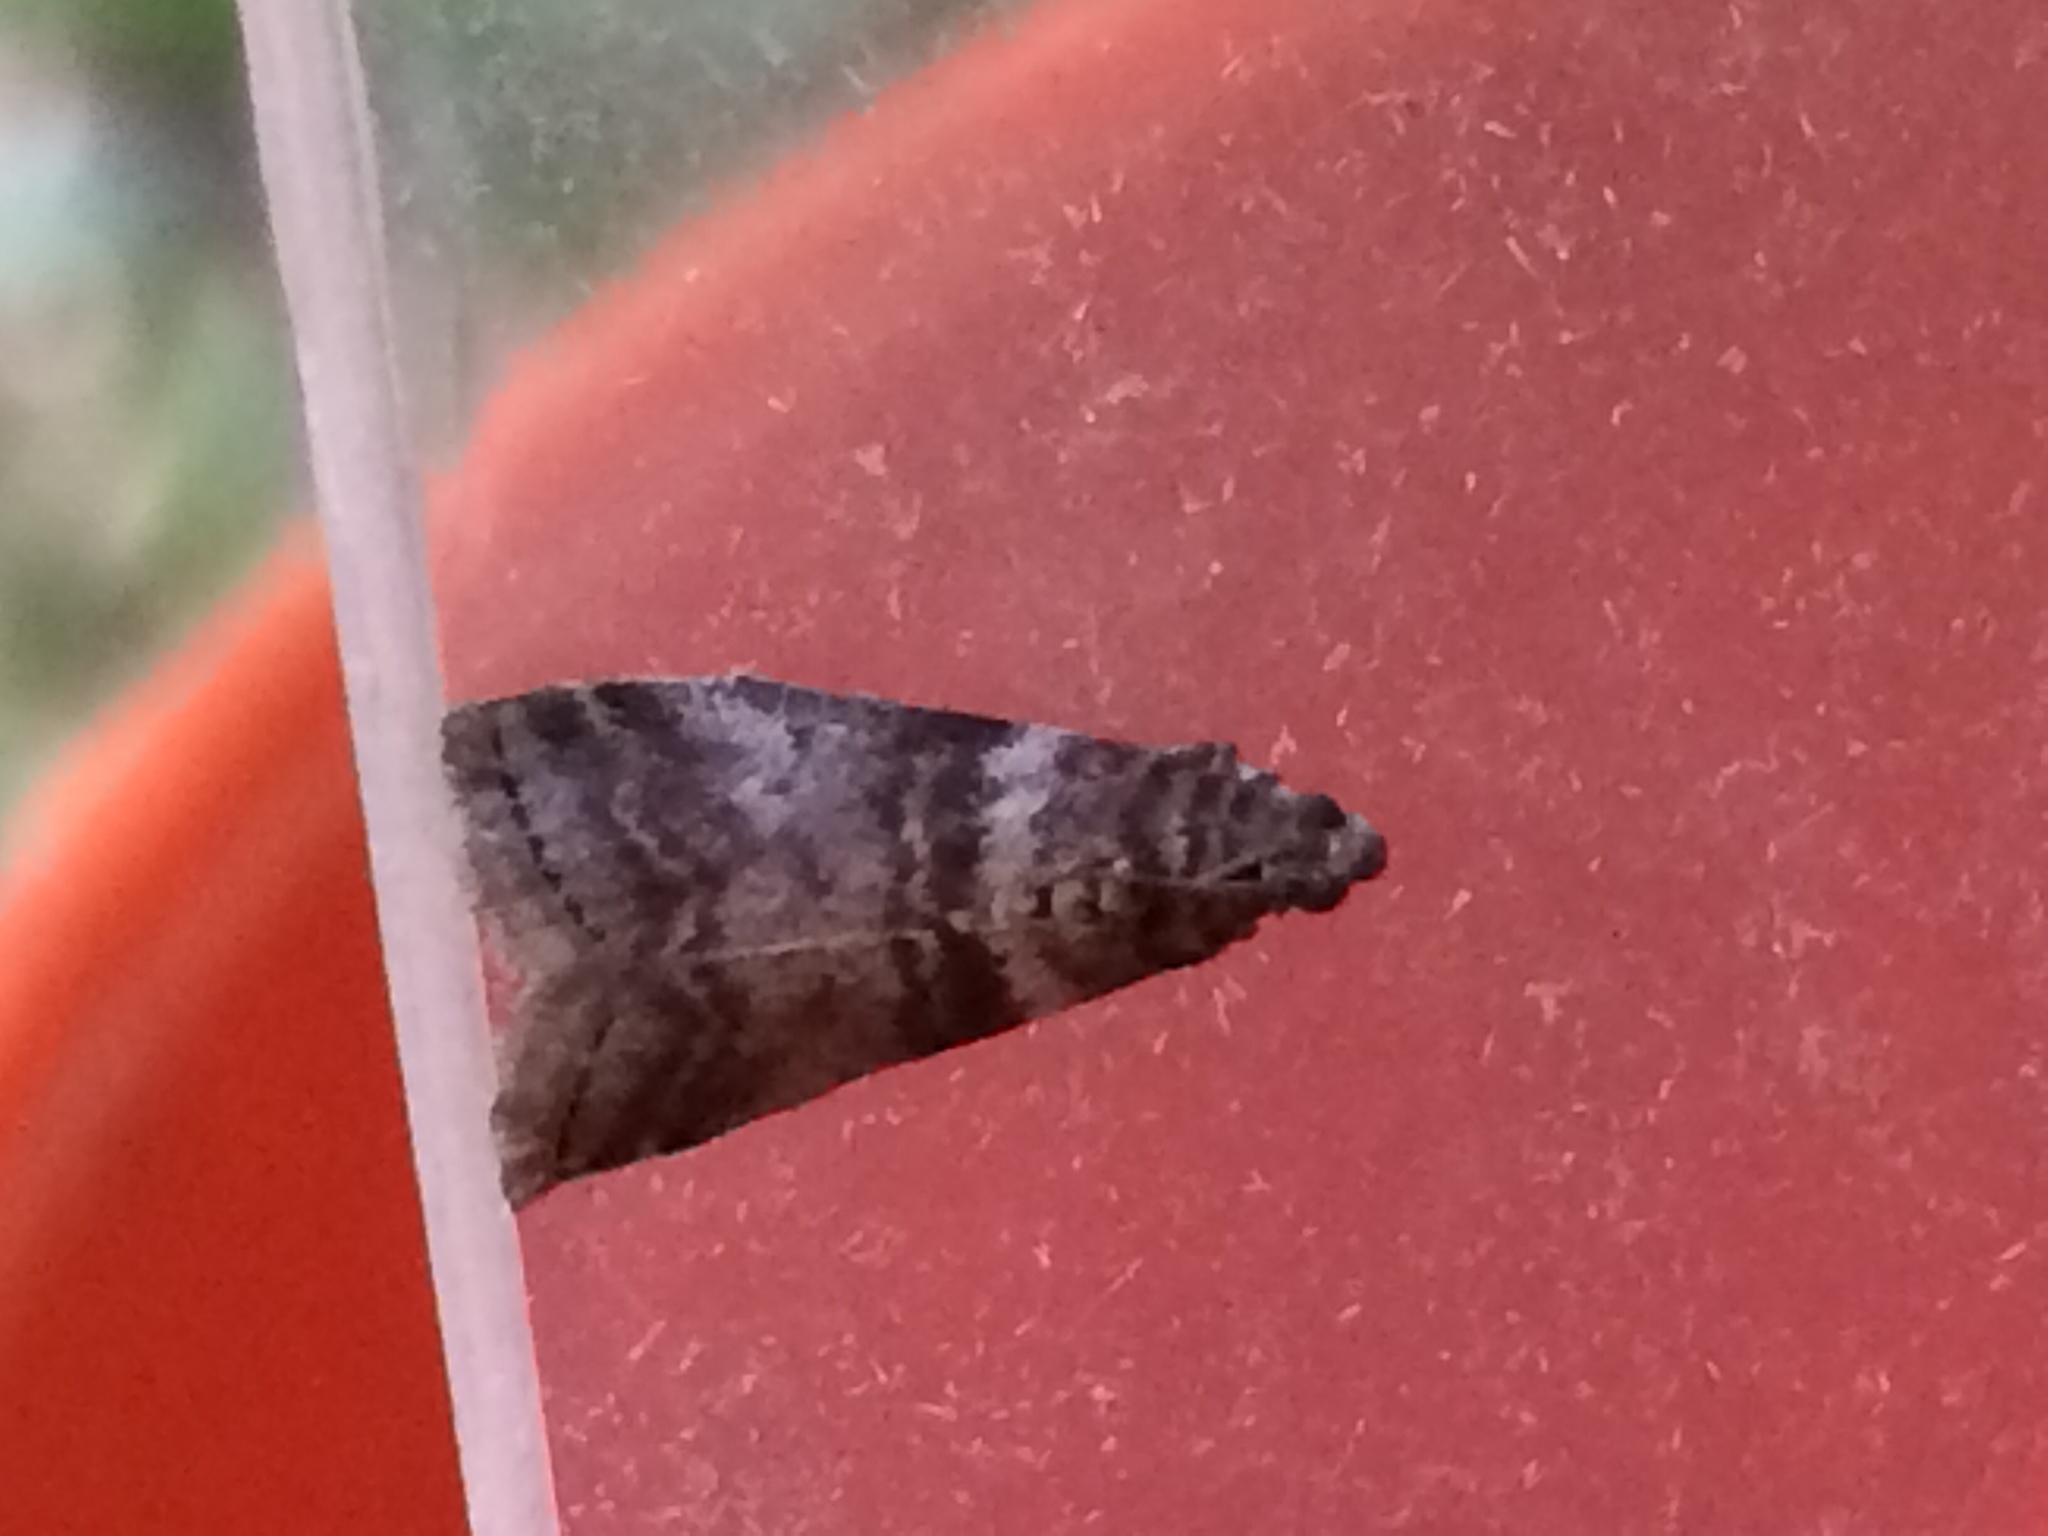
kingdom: Animalia
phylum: Arthropoda
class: Insecta
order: Lepidoptera
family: Pyralidae
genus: Sciota
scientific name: Sciota uvinella
